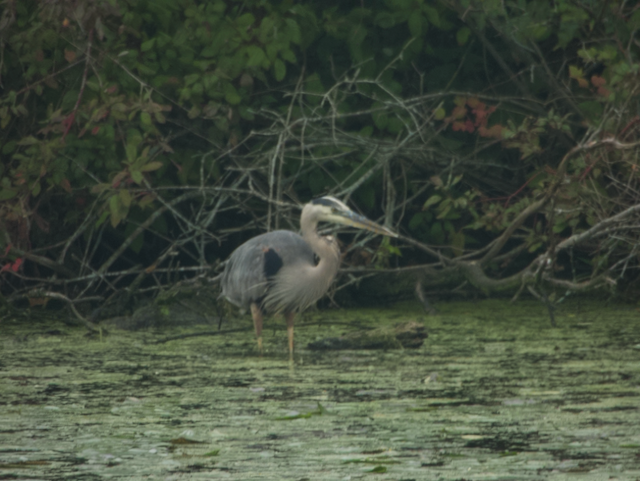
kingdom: Animalia
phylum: Chordata
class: Aves
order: Pelecaniformes
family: Ardeidae
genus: Ardea
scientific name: Ardea herodias
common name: Great blue heron
